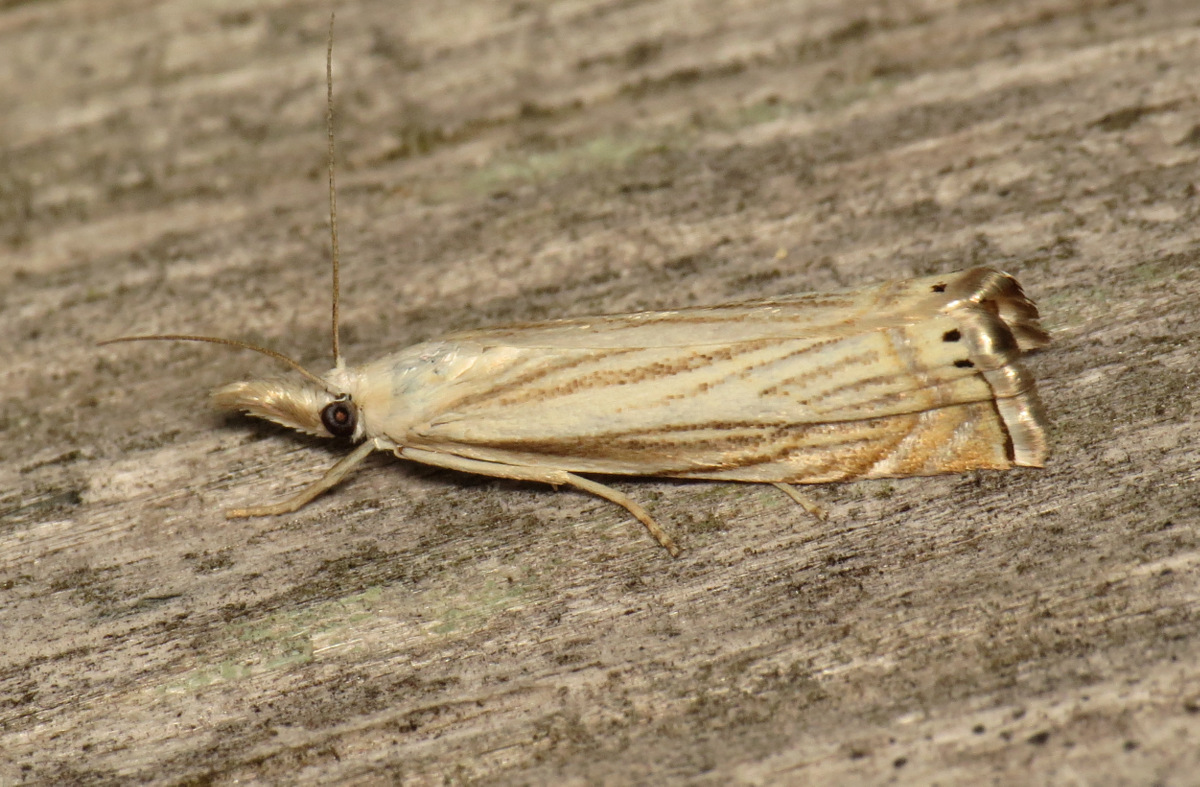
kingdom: Animalia
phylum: Arthropoda
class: Insecta
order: Lepidoptera
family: Crambidae
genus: Chrysoteuchia
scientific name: Chrysoteuchia topiarius
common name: Topiary grass-veneer
